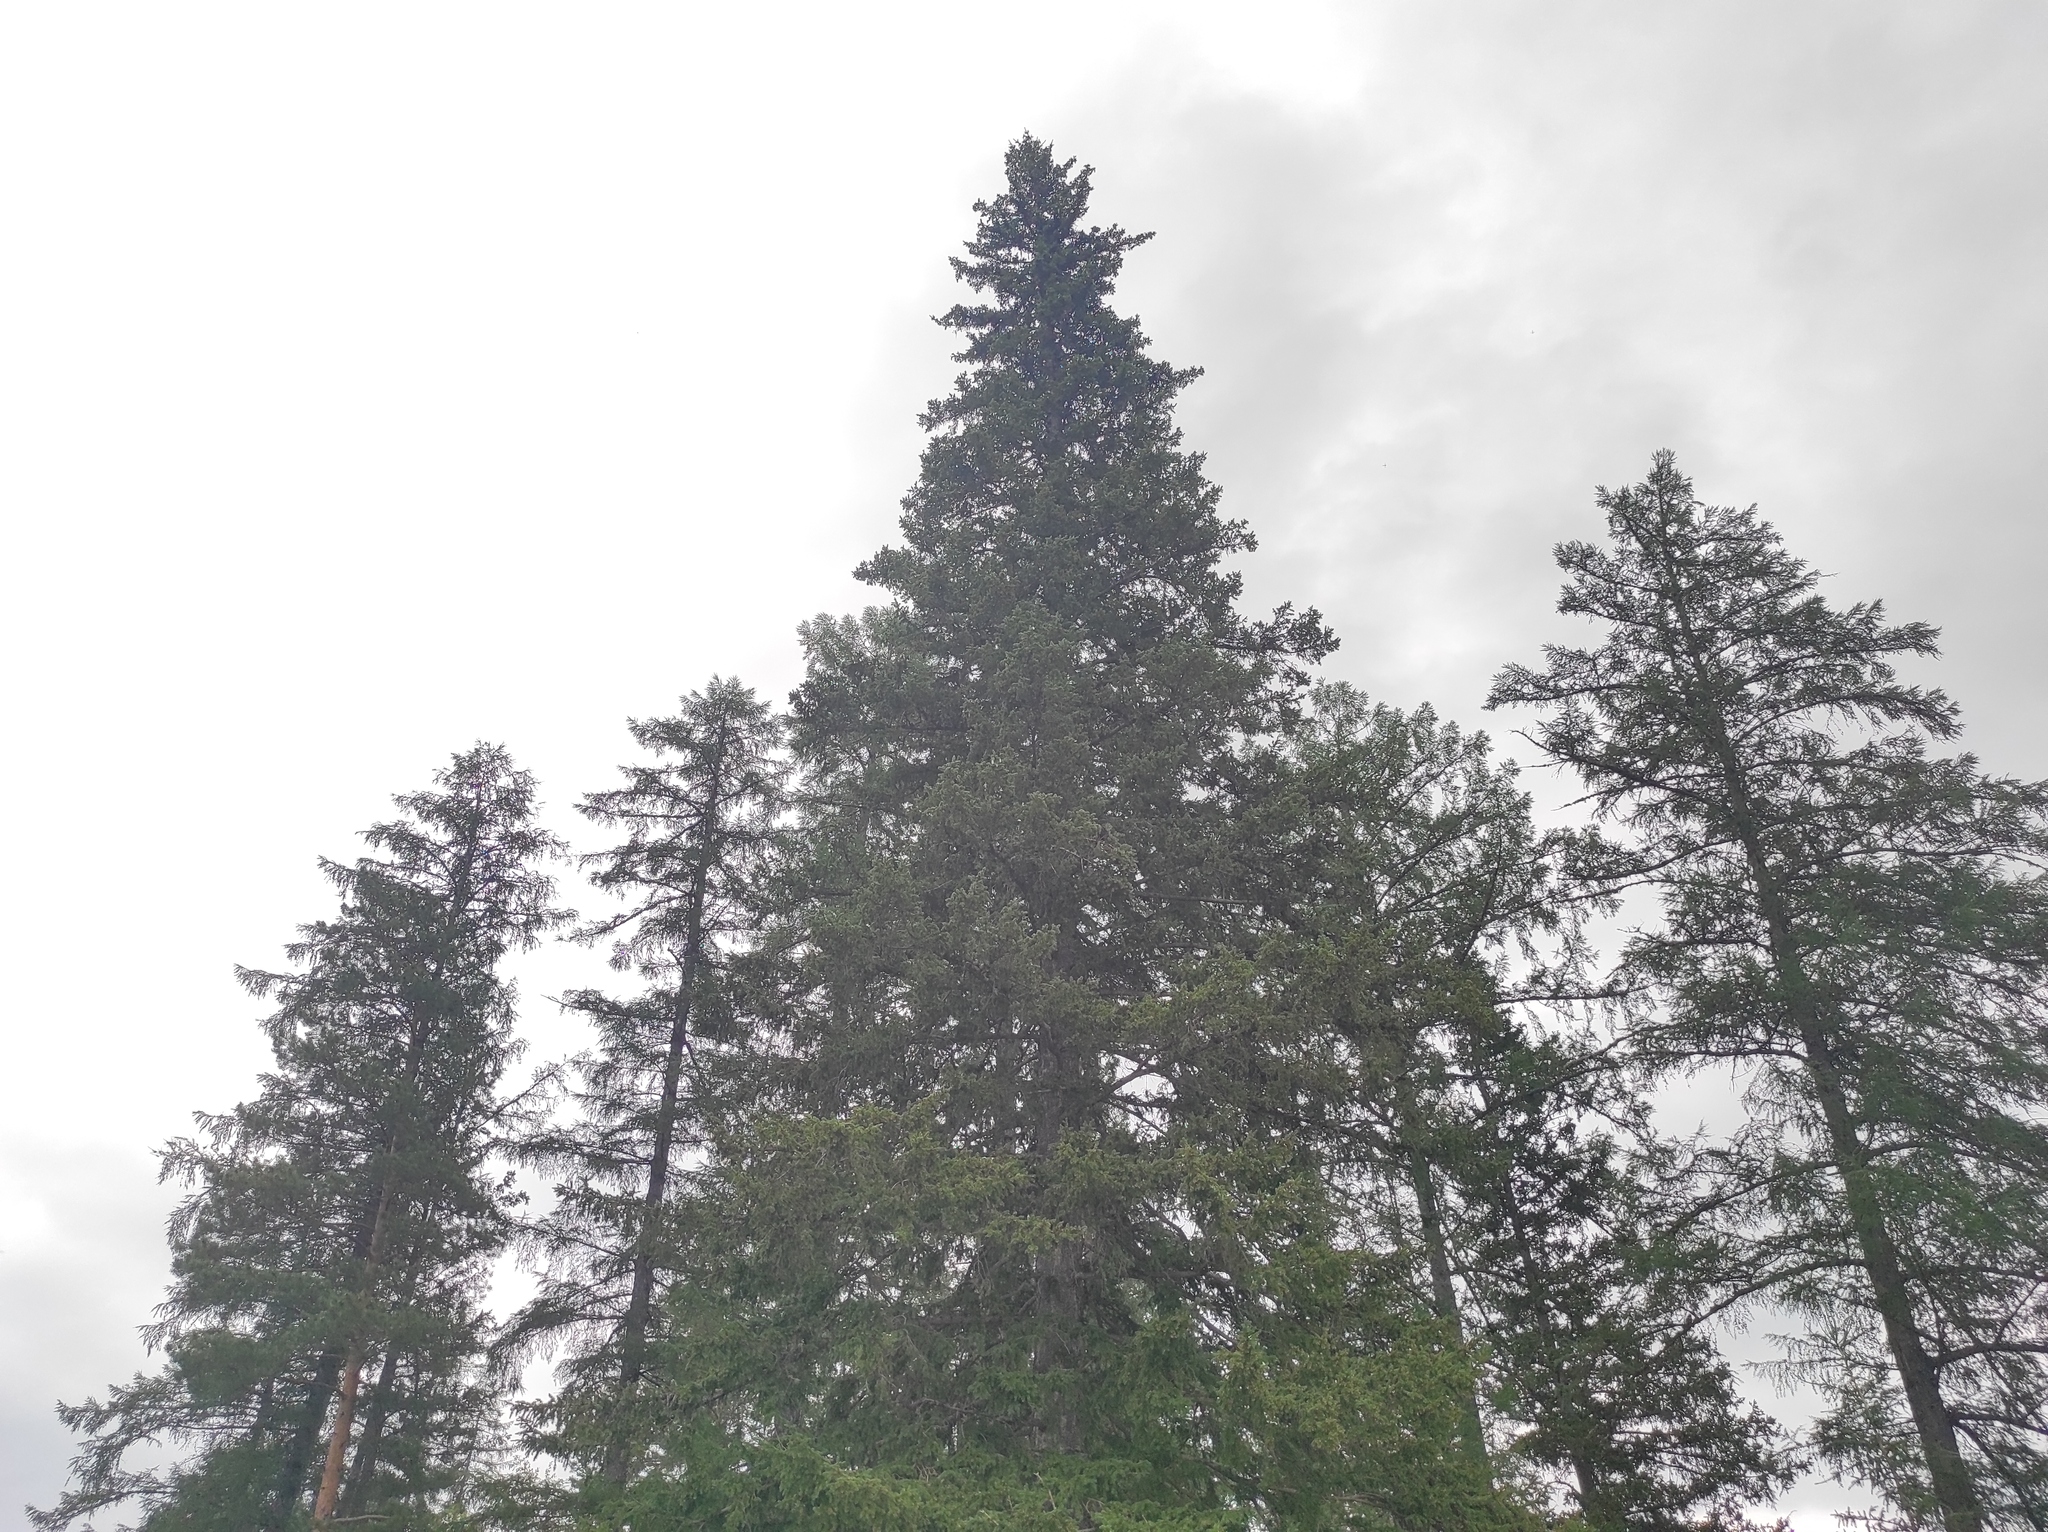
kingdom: Plantae
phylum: Tracheophyta
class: Pinopsida
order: Pinales
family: Pinaceae
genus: Picea
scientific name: Picea obovata
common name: Siberian spruce
